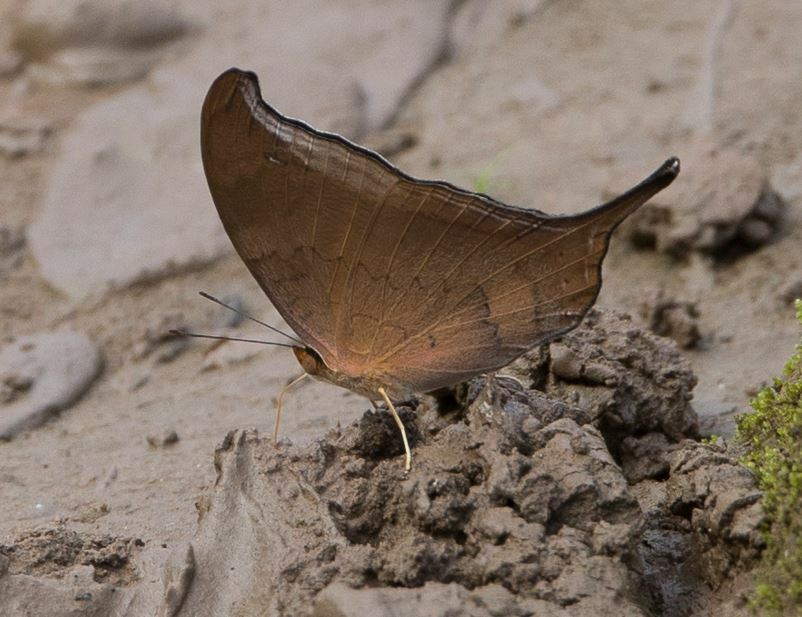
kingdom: Animalia
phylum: Arthropoda
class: Insecta
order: Lepidoptera
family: Nymphalidae
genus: Marpesia
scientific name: Marpesia furcula
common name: Sunset daggerwing
